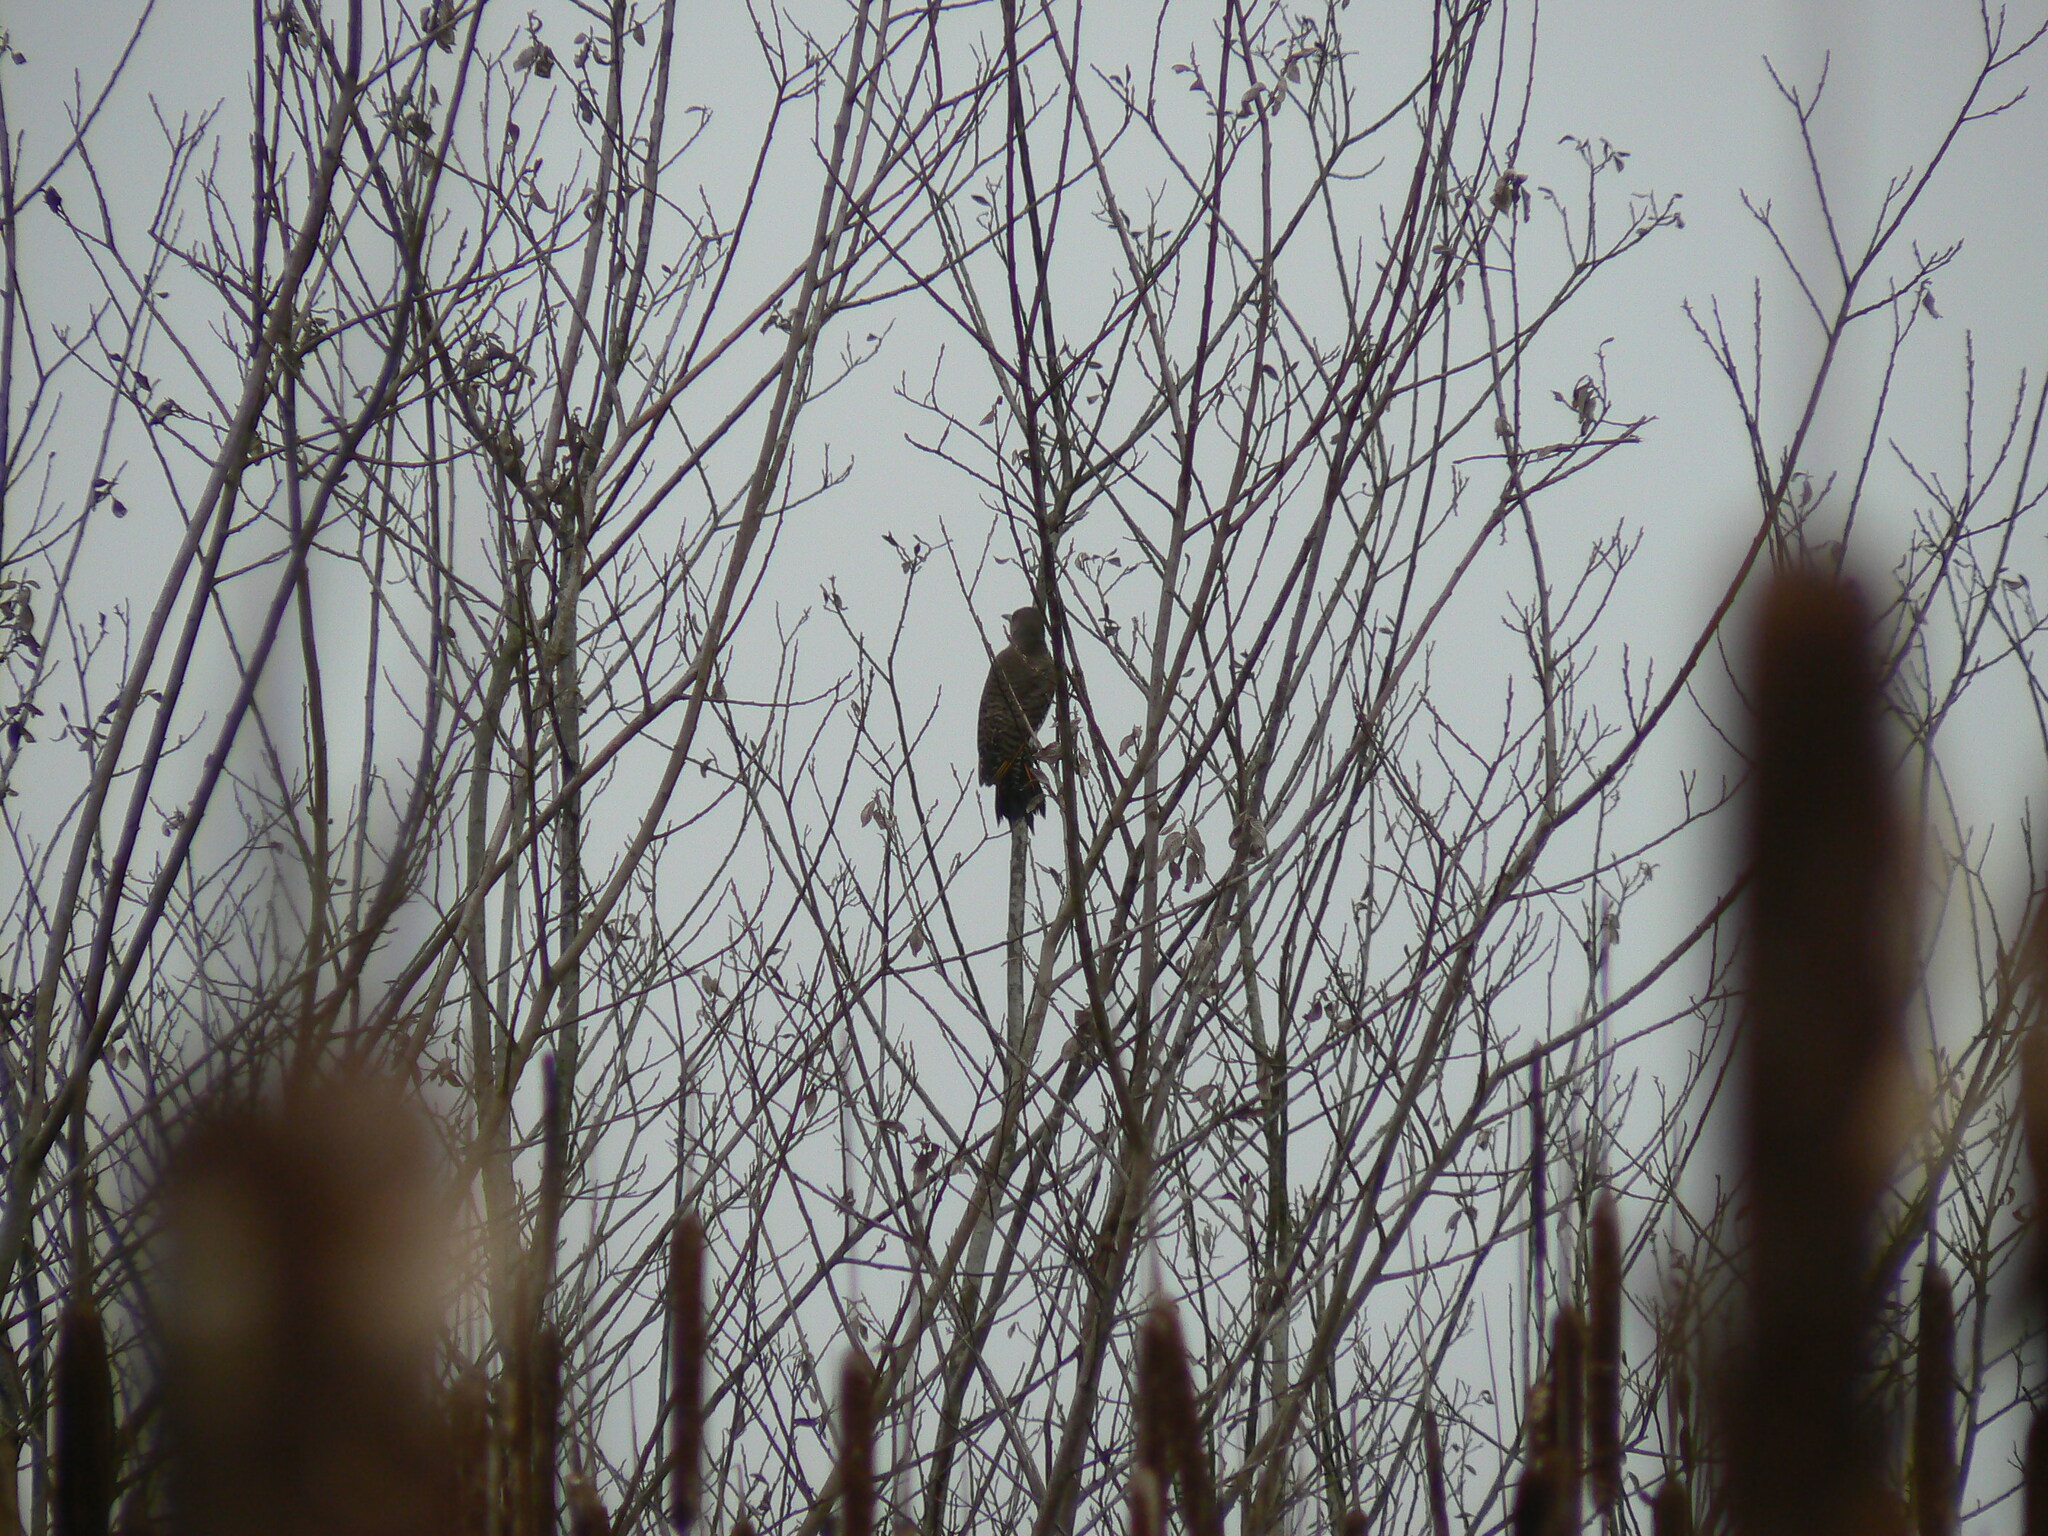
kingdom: Animalia
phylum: Chordata
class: Aves
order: Piciformes
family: Picidae
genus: Colaptes
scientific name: Colaptes auratus
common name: Northern flicker
